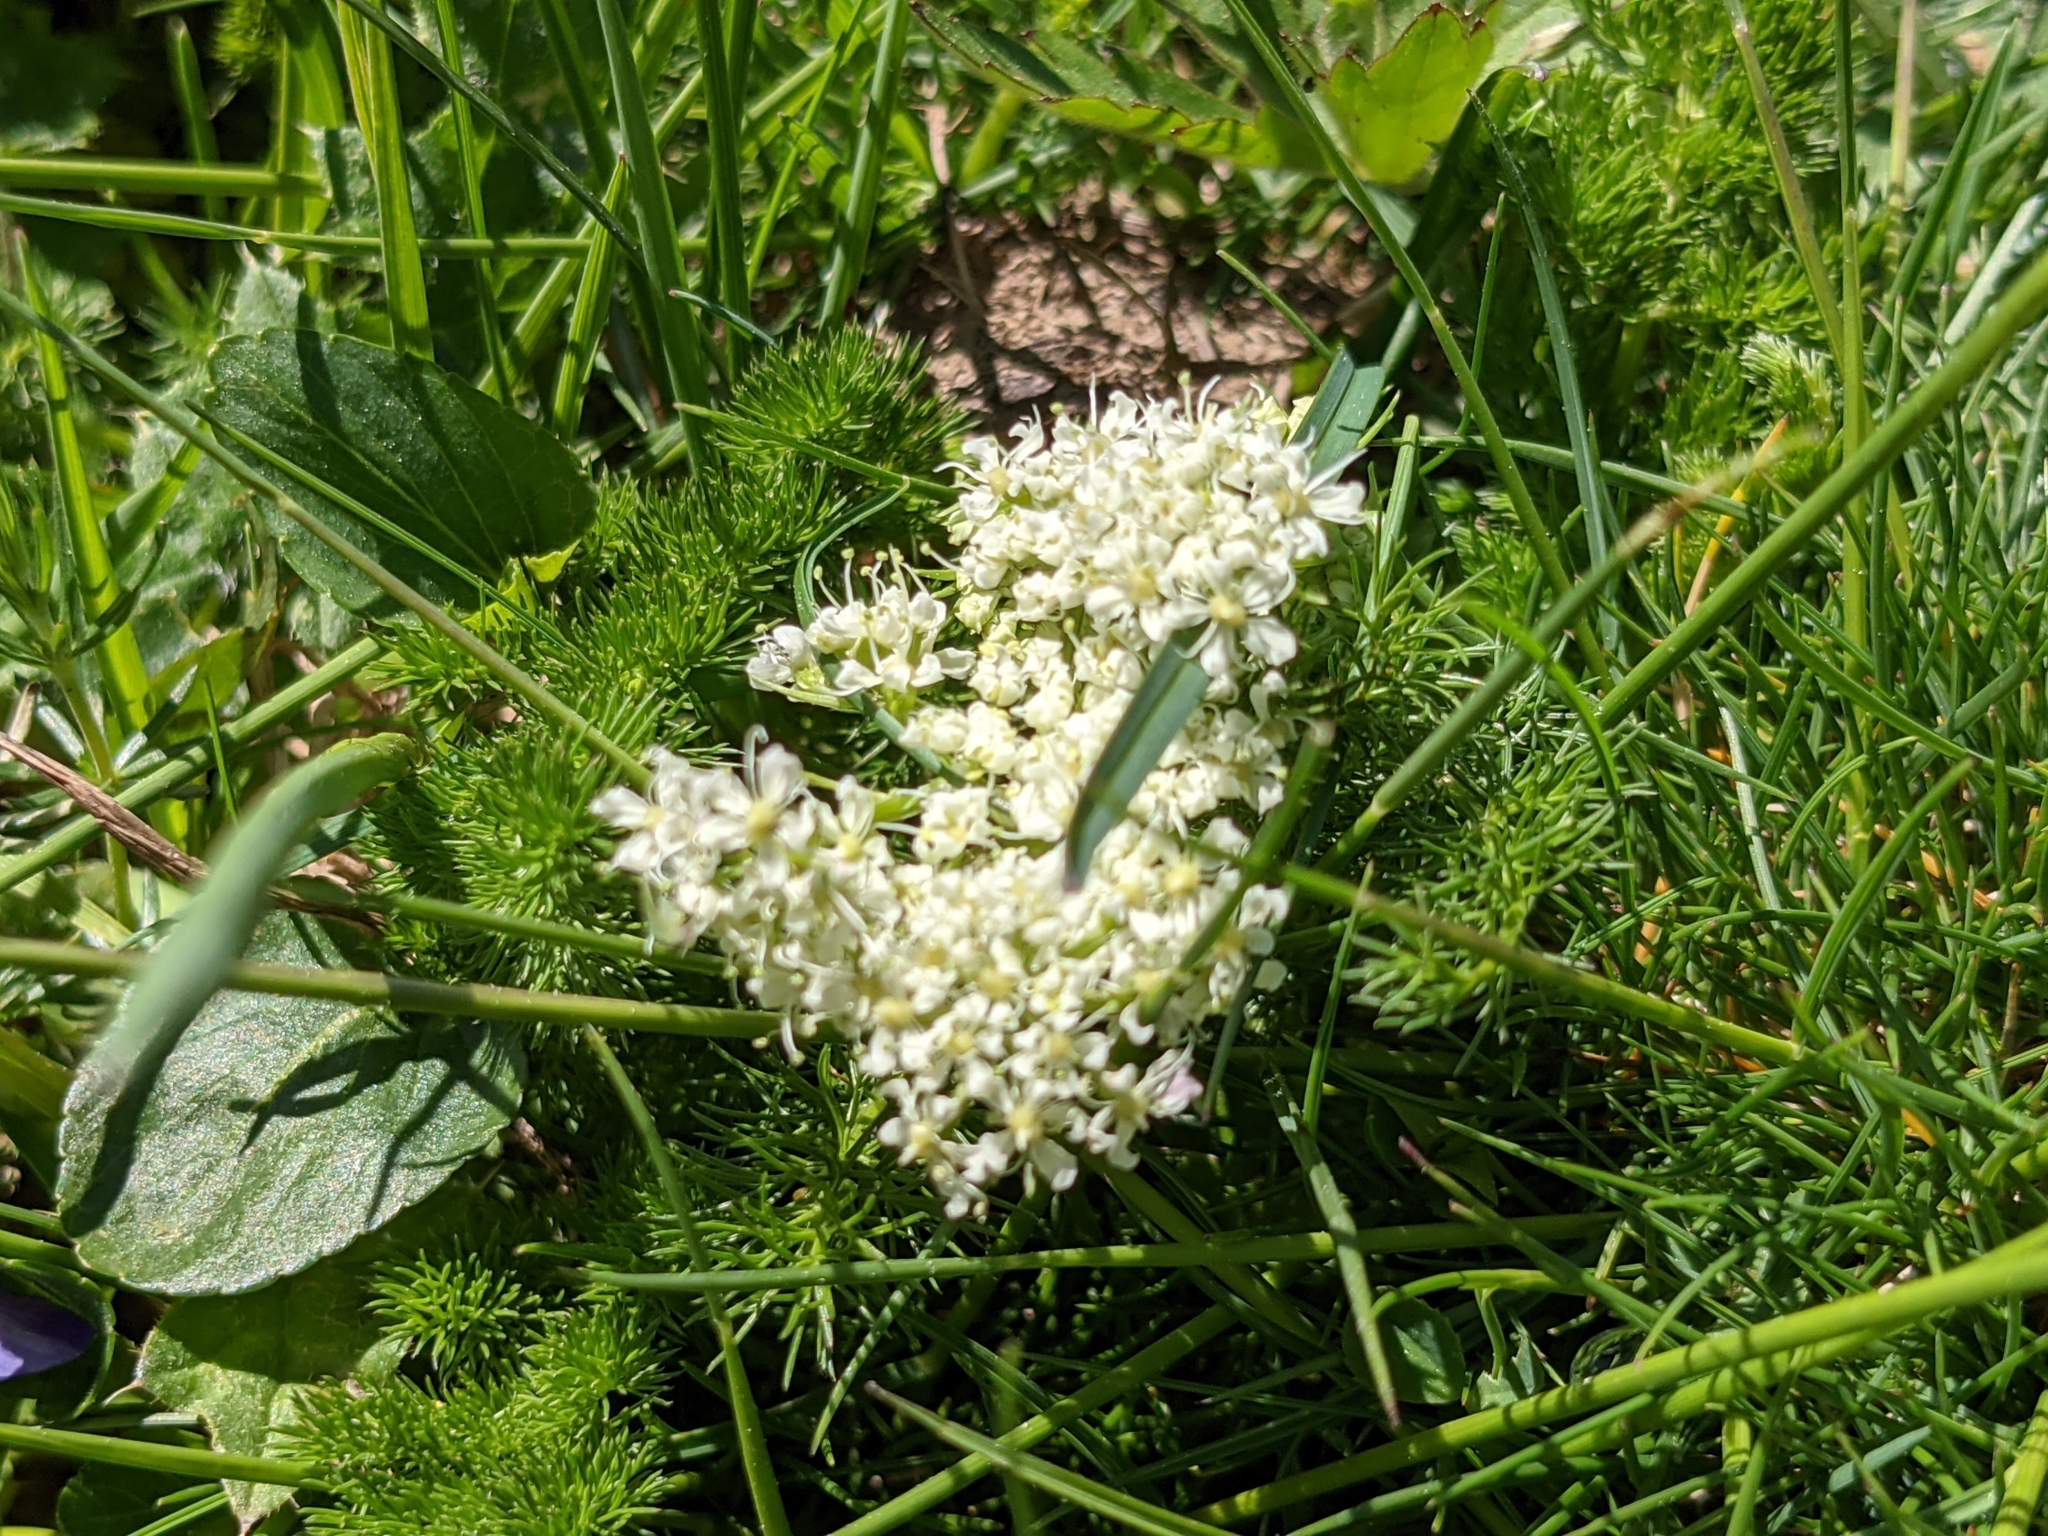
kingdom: Plantae
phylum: Tracheophyta
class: Magnoliopsida
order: Apiales
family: Apiaceae
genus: Meum
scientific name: Meum athamanticum
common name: Spignel
